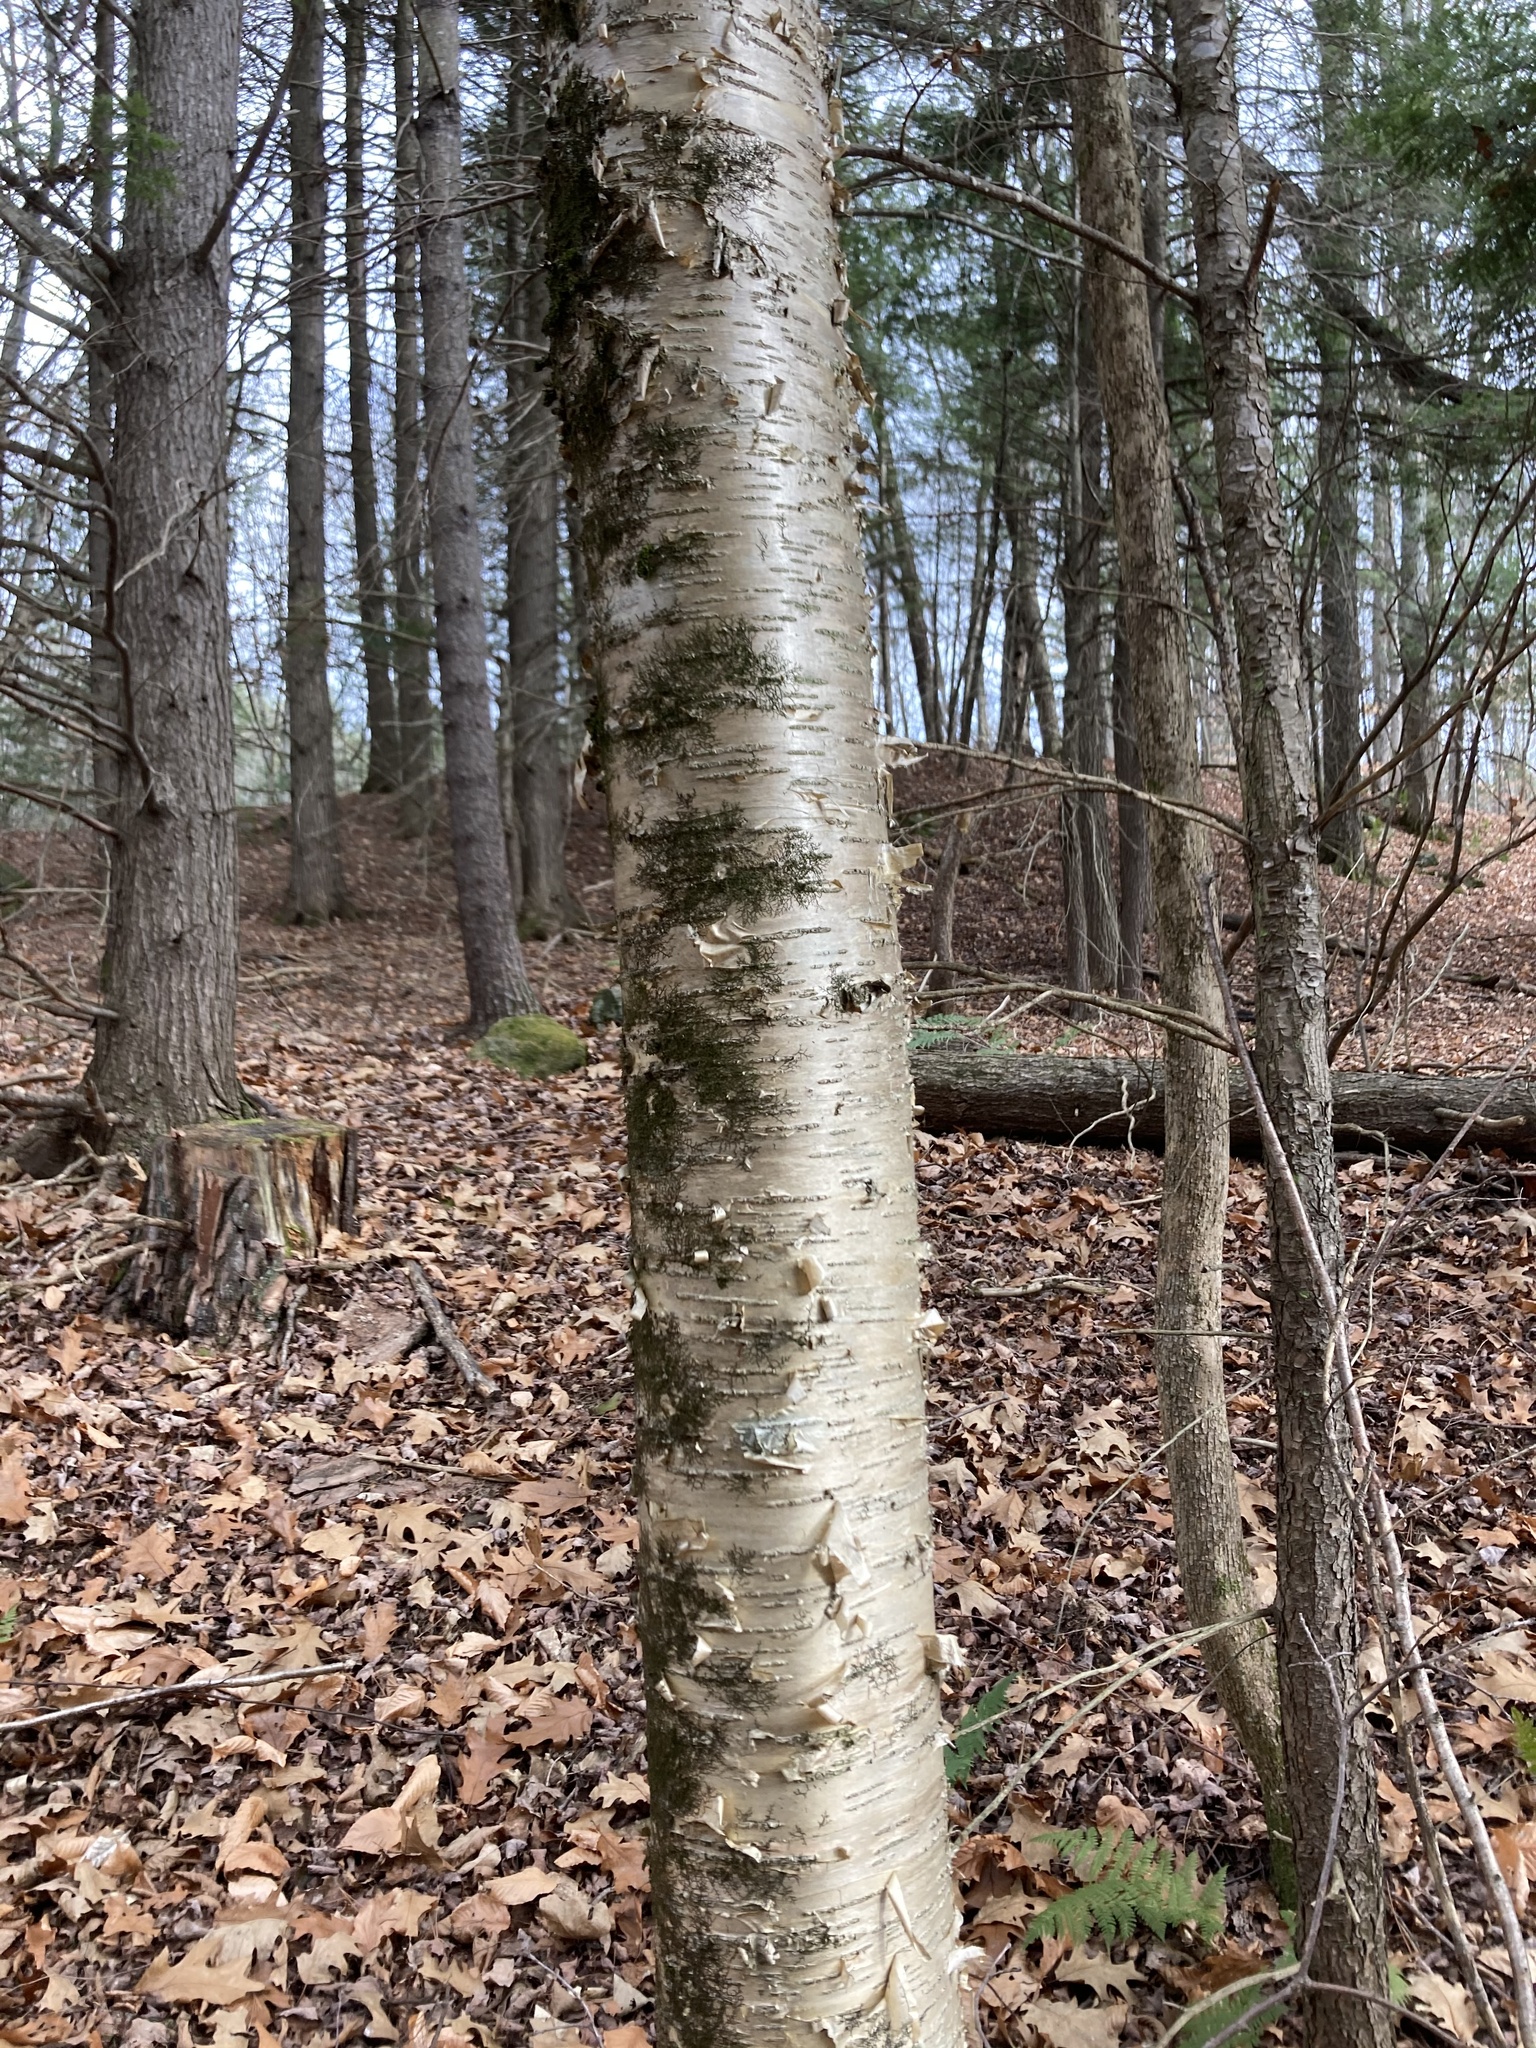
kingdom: Plantae
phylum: Tracheophyta
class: Magnoliopsida
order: Fagales
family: Betulaceae
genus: Betula
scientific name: Betula alleghaniensis
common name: Yellow birch
